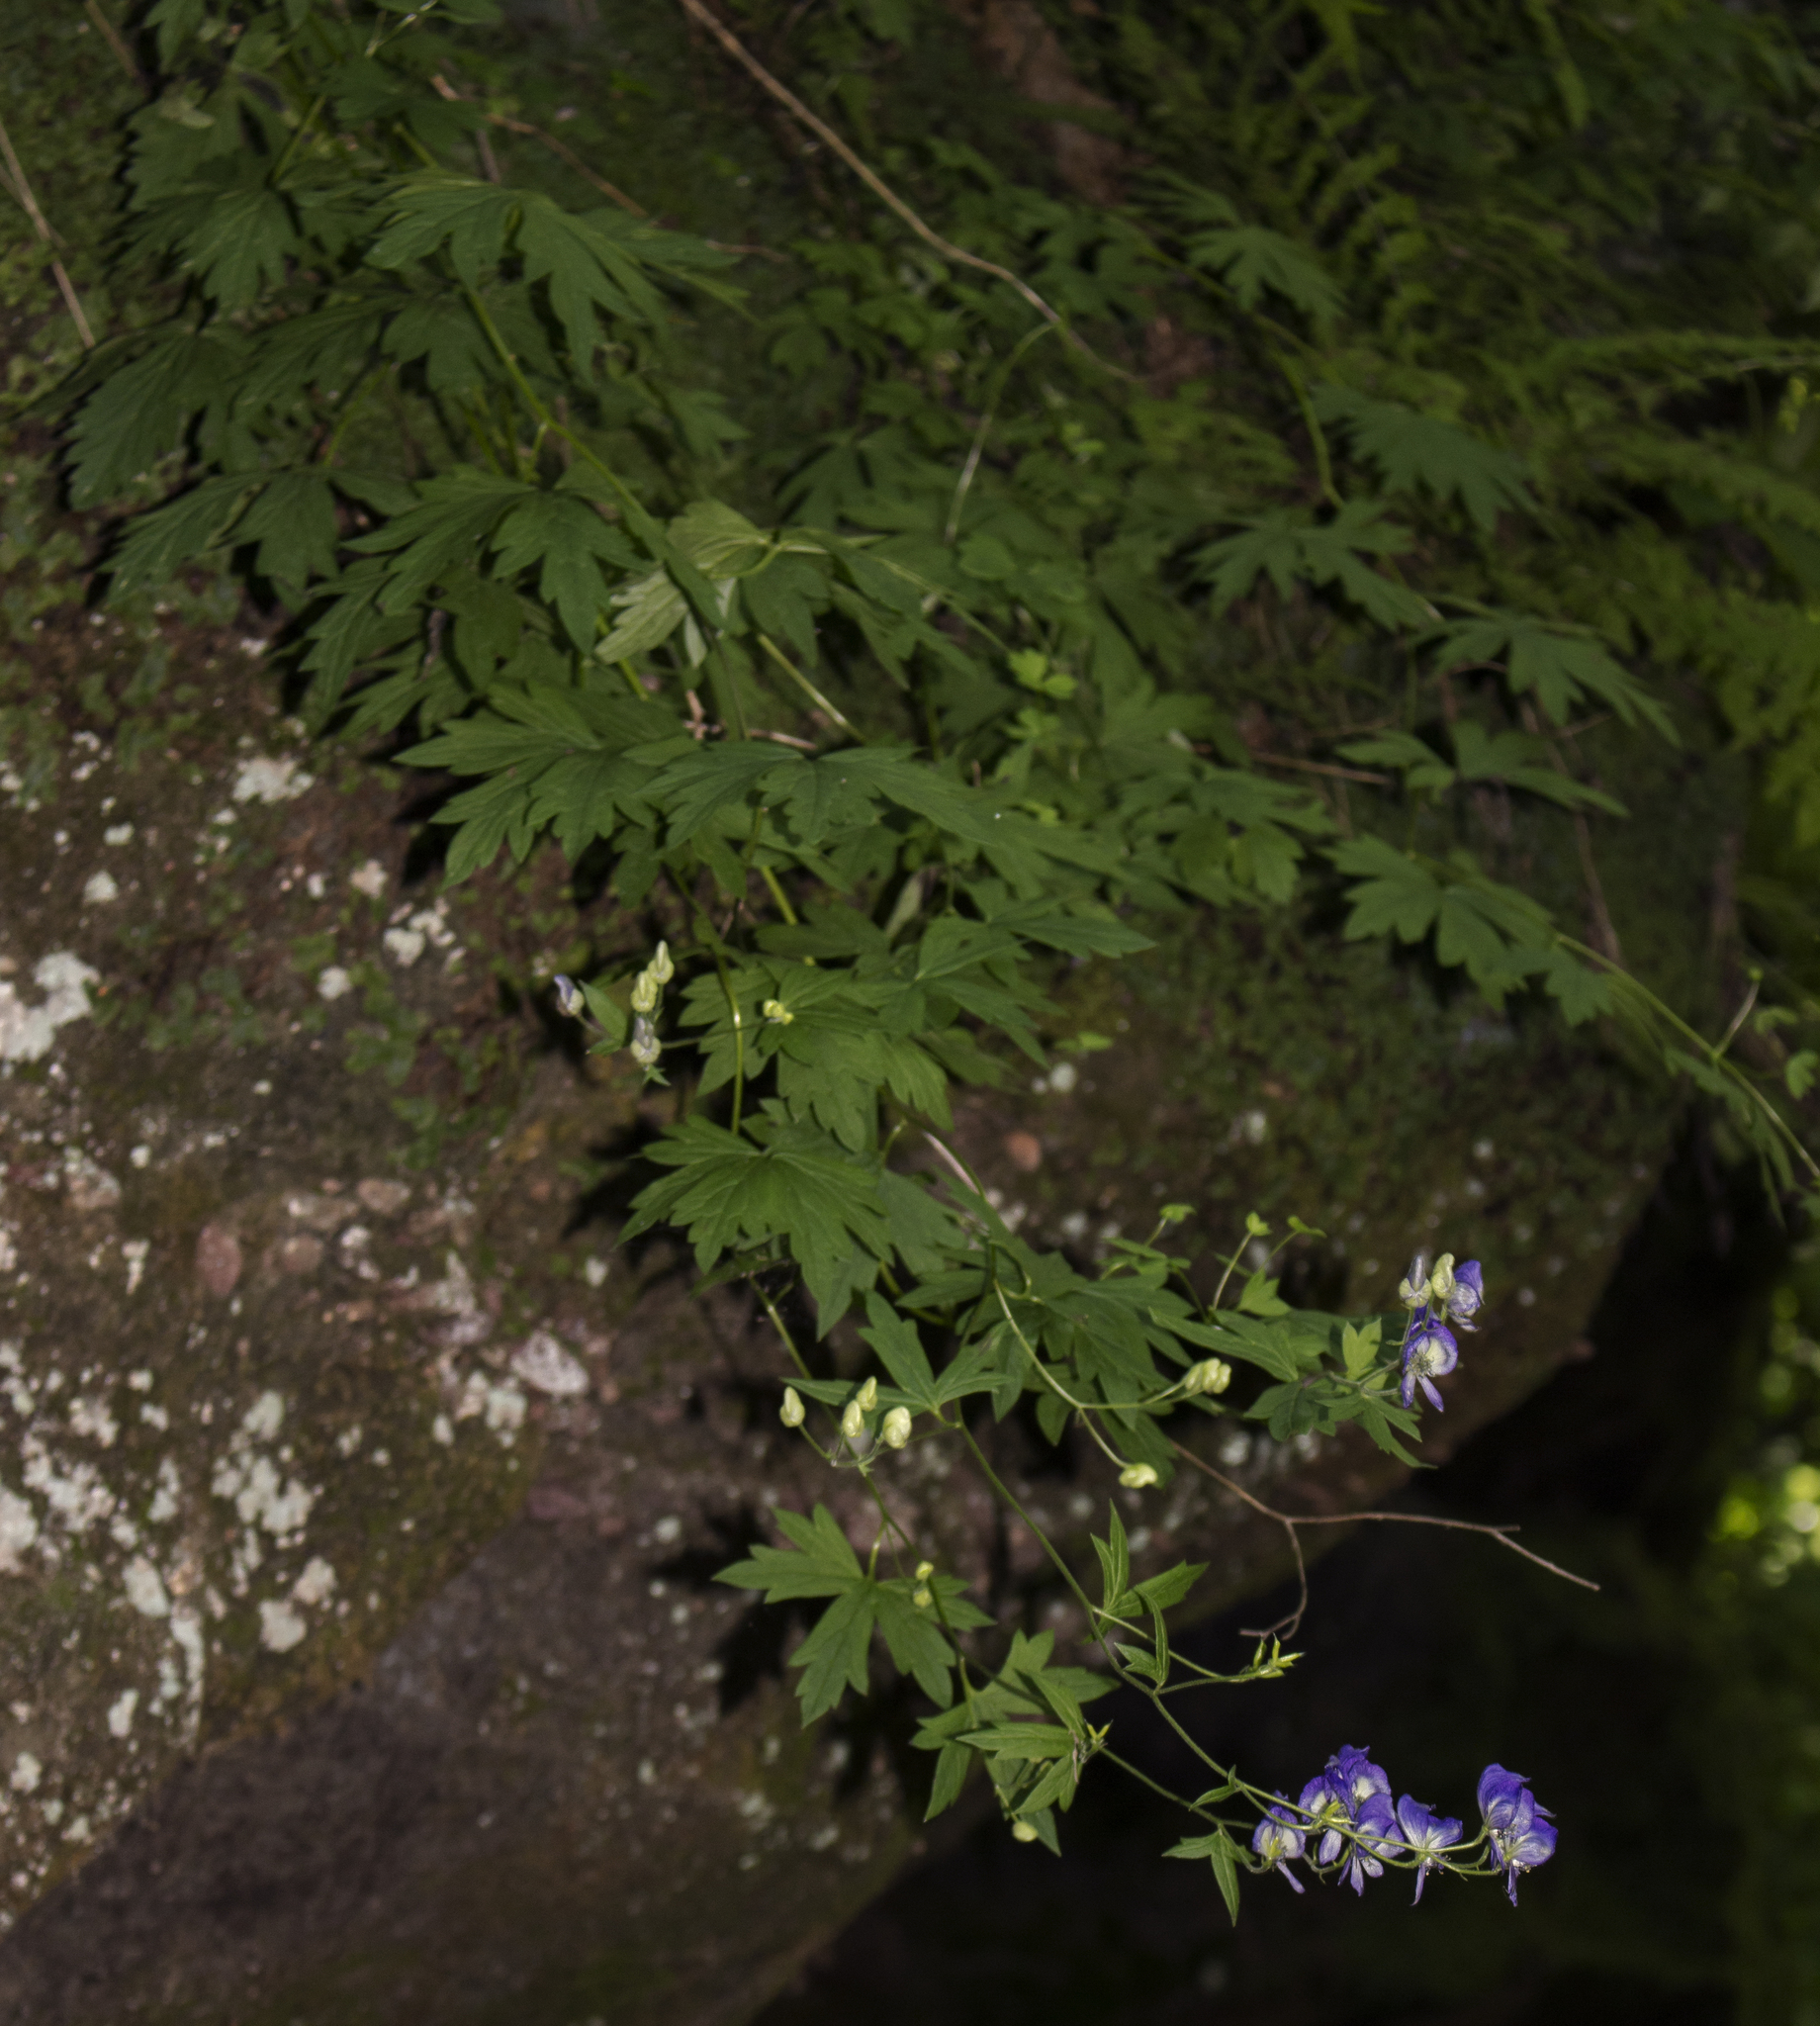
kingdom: Plantae
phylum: Tracheophyta
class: Magnoliopsida
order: Ranunculales
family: Ranunculaceae
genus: Aconitum
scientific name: Aconitum noveboracense
